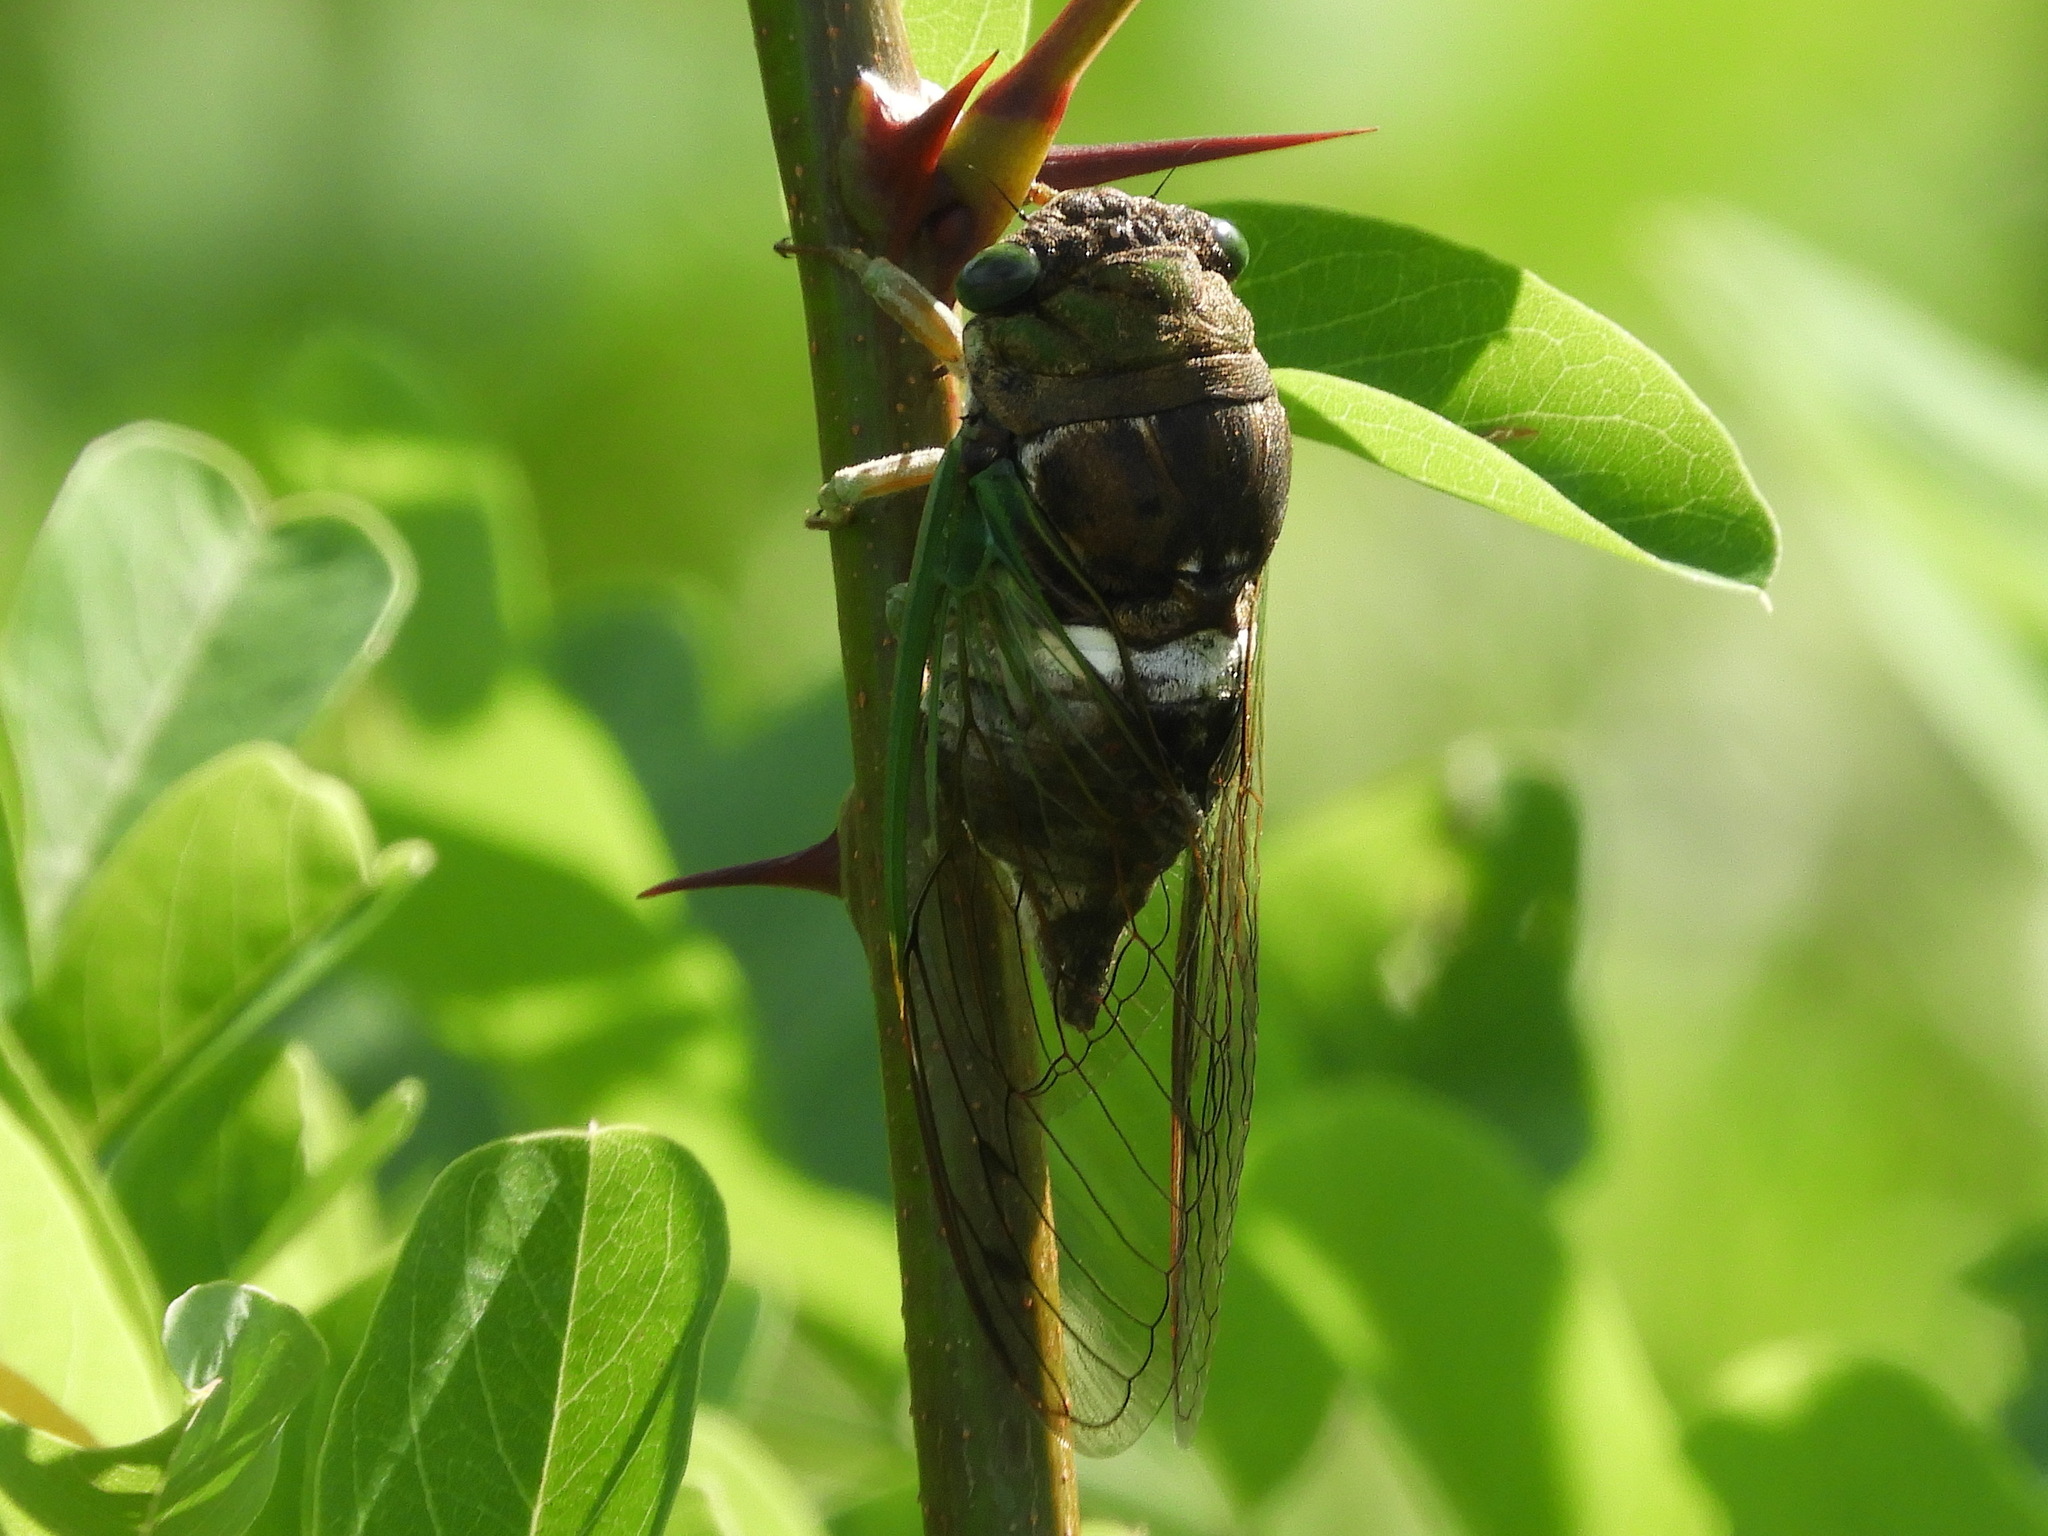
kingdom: Animalia
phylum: Arthropoda
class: Insecta
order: Hemiptera
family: Cicadidae
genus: Neotibicen
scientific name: Neotibicen tibicen
